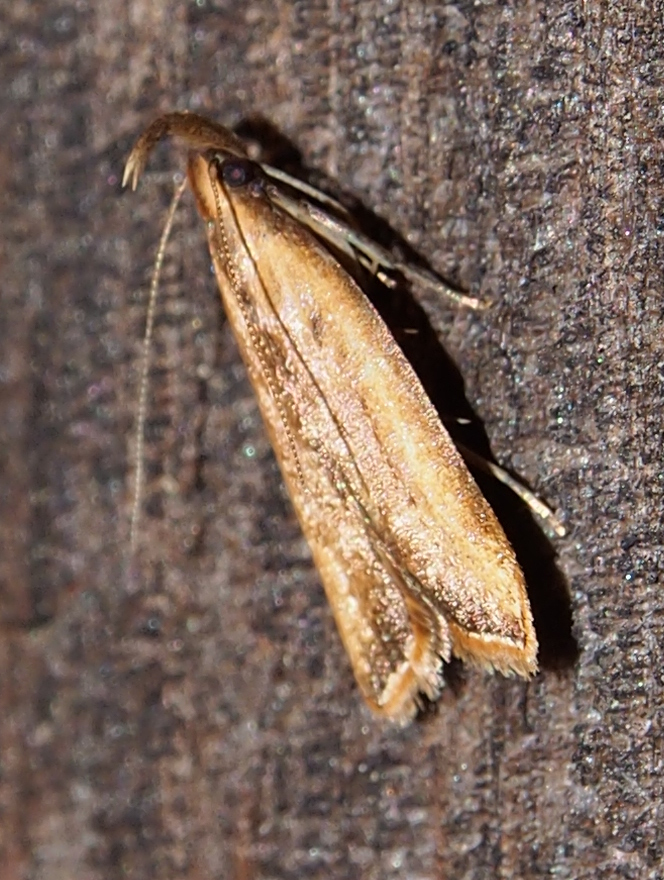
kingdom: Animalia
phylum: Arthropoda
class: Insecta
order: Lepidoptera
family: Gelechiidae
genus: Dichomeris
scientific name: Dichomeris heriguronis
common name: Black-edged dichomeris moth
